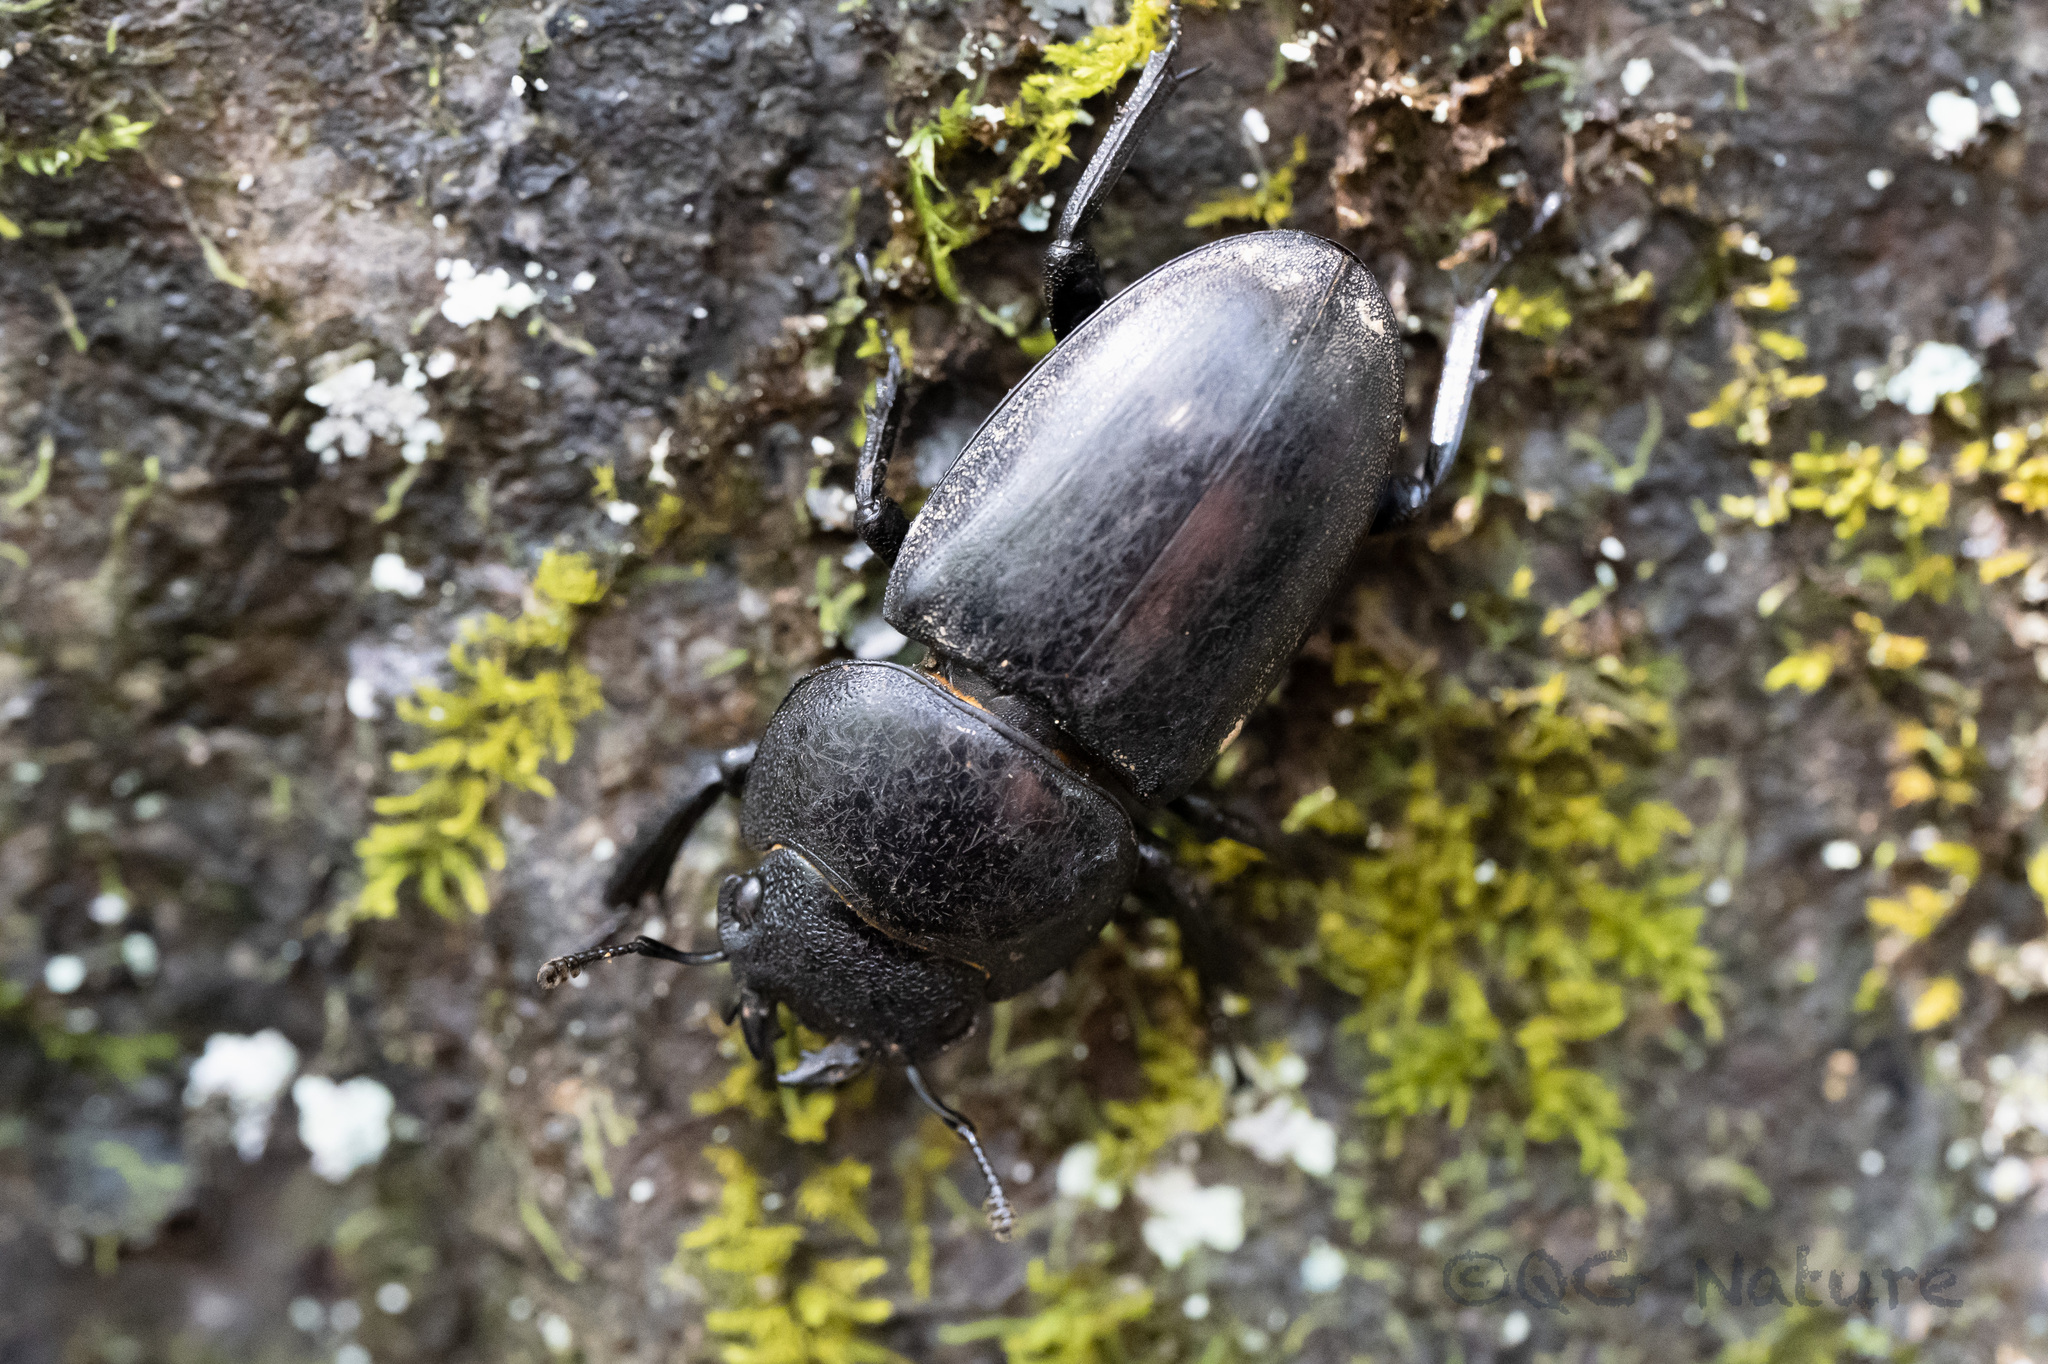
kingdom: Animalia
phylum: Arthropoda
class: Insecta
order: Coleoptera
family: Lucanidae
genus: Serrognathus
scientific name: Serrognathus titanus
